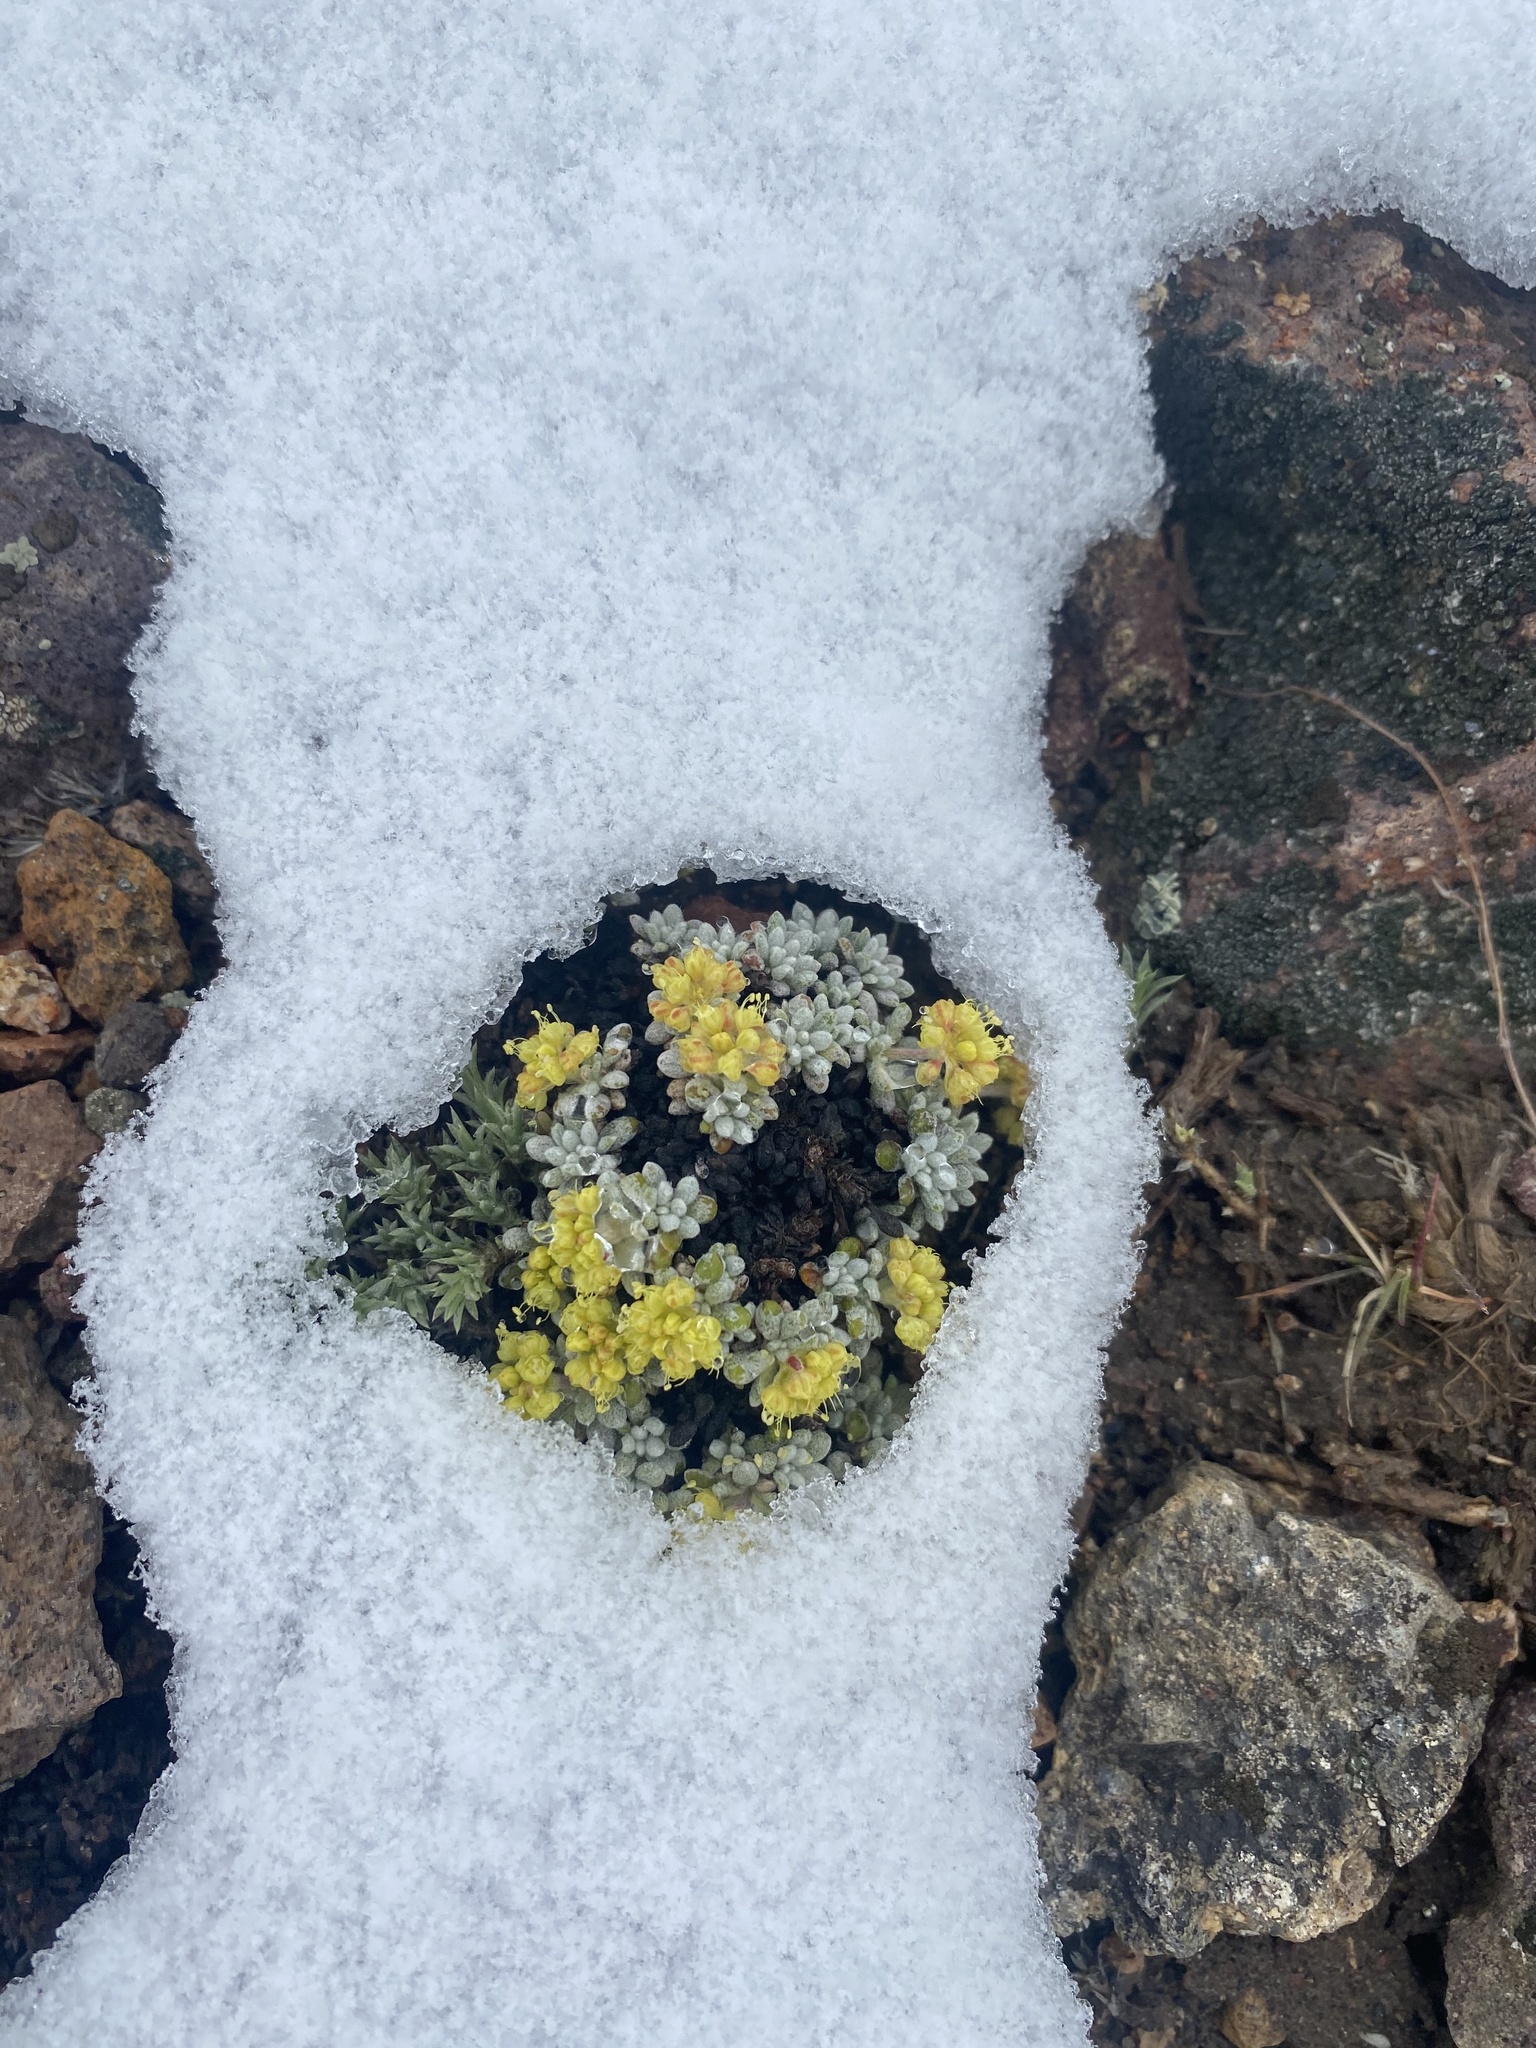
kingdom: Plantae
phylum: Tracheophyta
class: Magnoliopsida
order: Caryophyllales
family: Polygonaceae
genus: Eriogonum
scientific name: Eriogonum caespitosum
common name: Matted wild buckwheat
